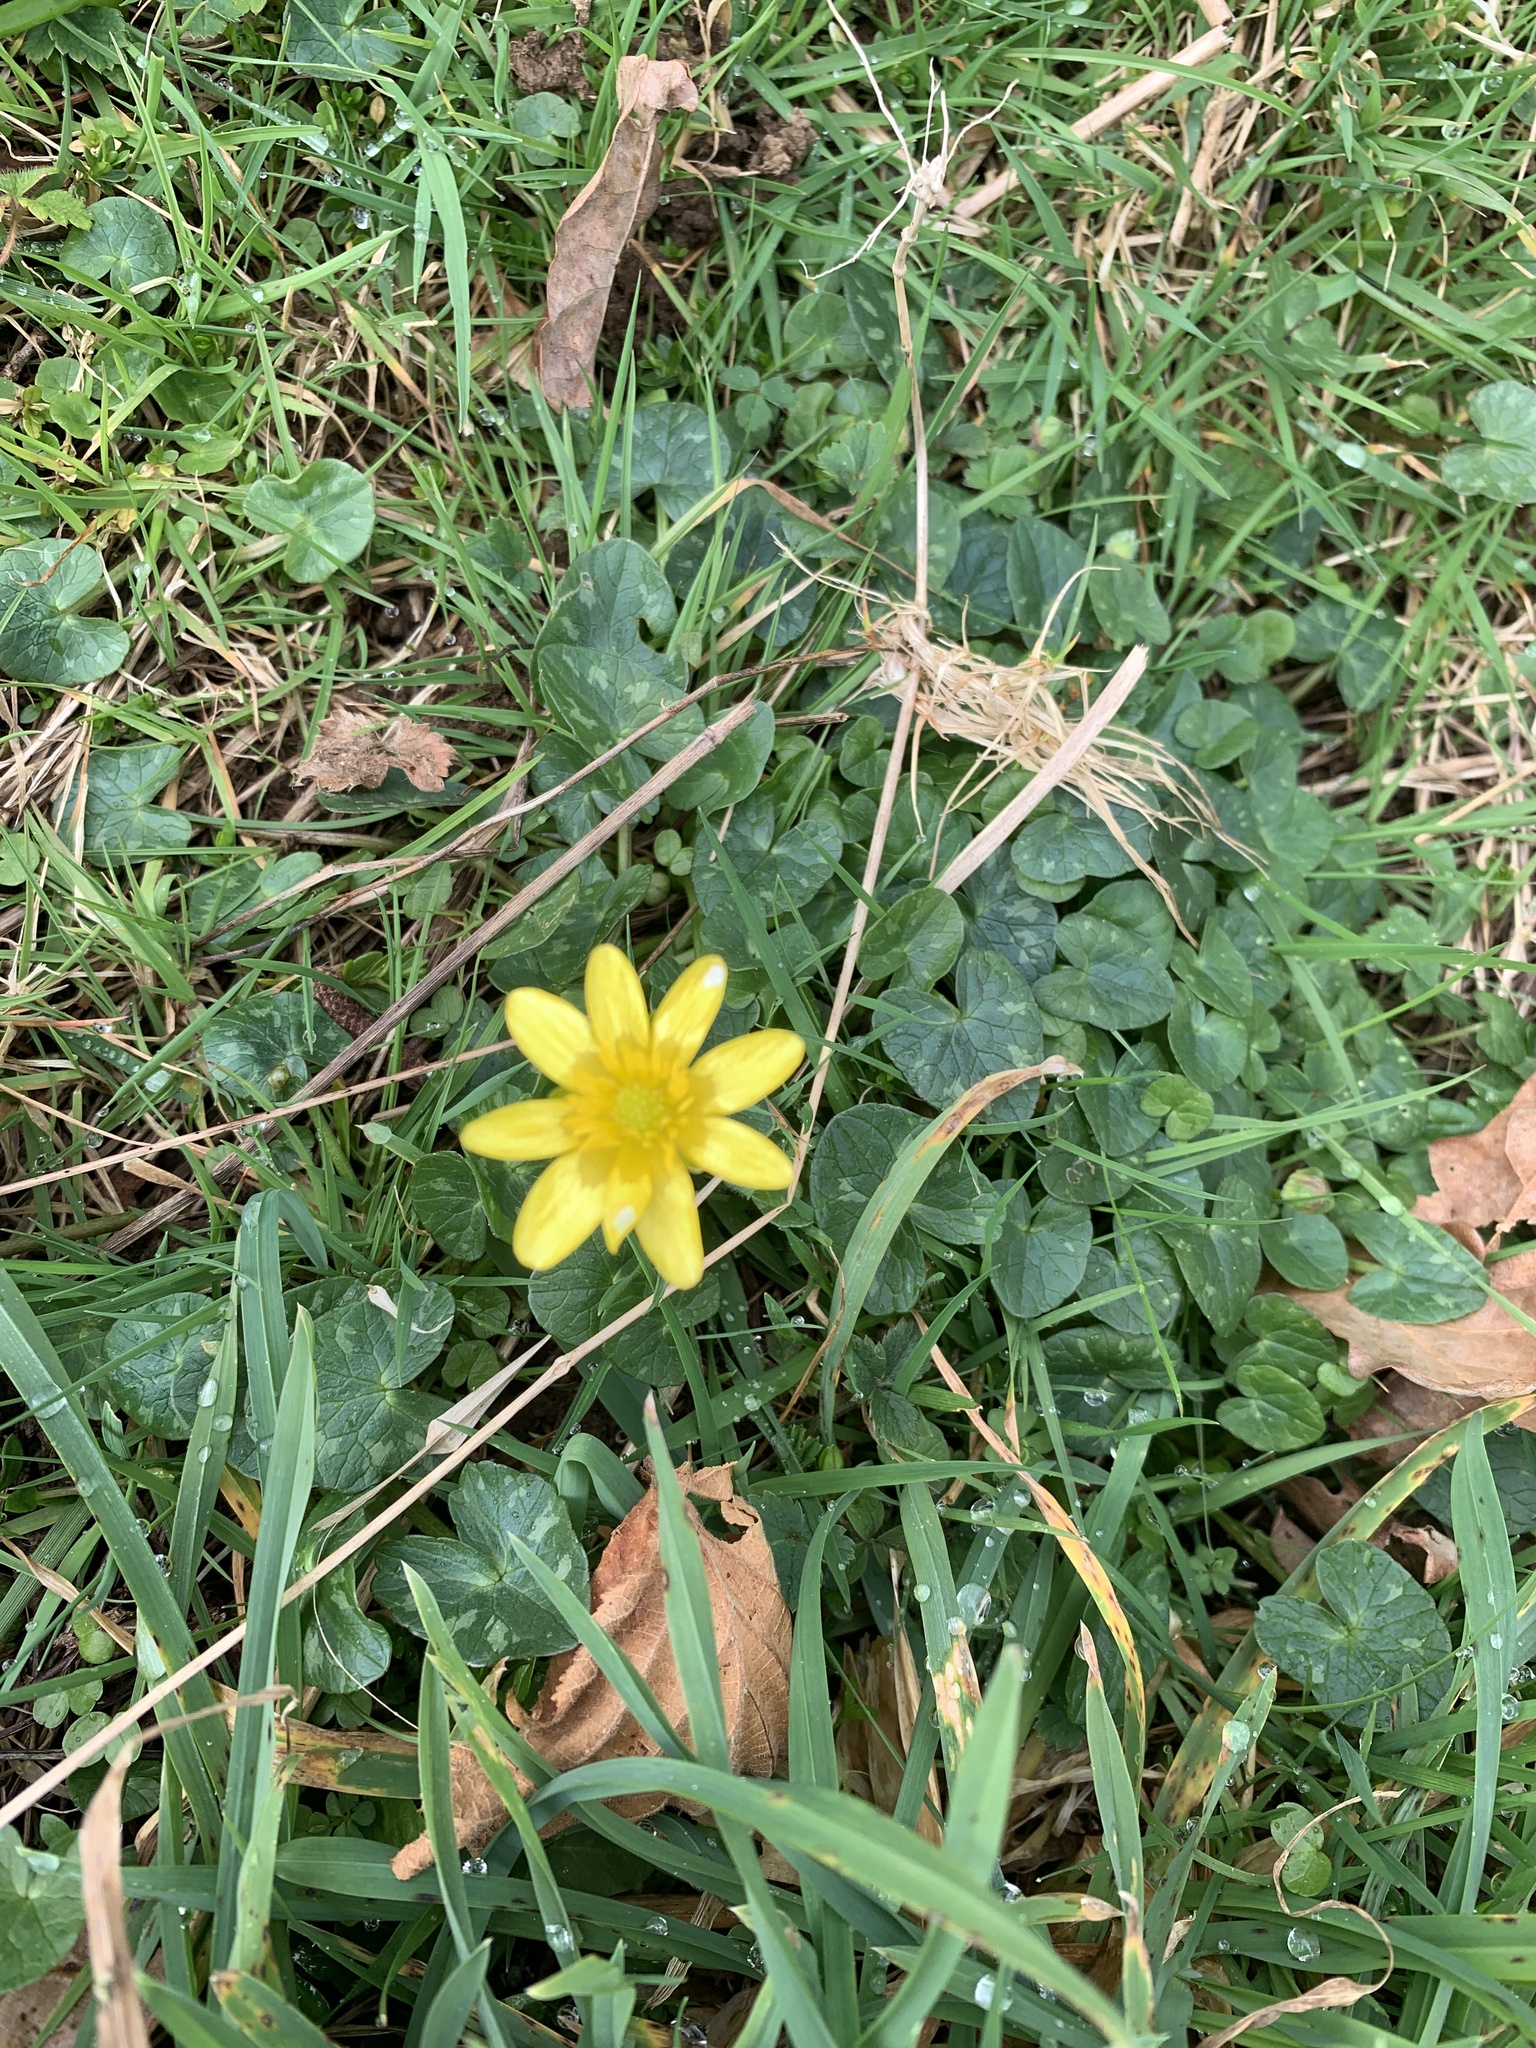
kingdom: Plantae
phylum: Tracheophyta
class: Magnoliopsida
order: Ranunculales
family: Ranunculaceae
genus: Ficaria
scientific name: Ficaria verna
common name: Lesser celandine
